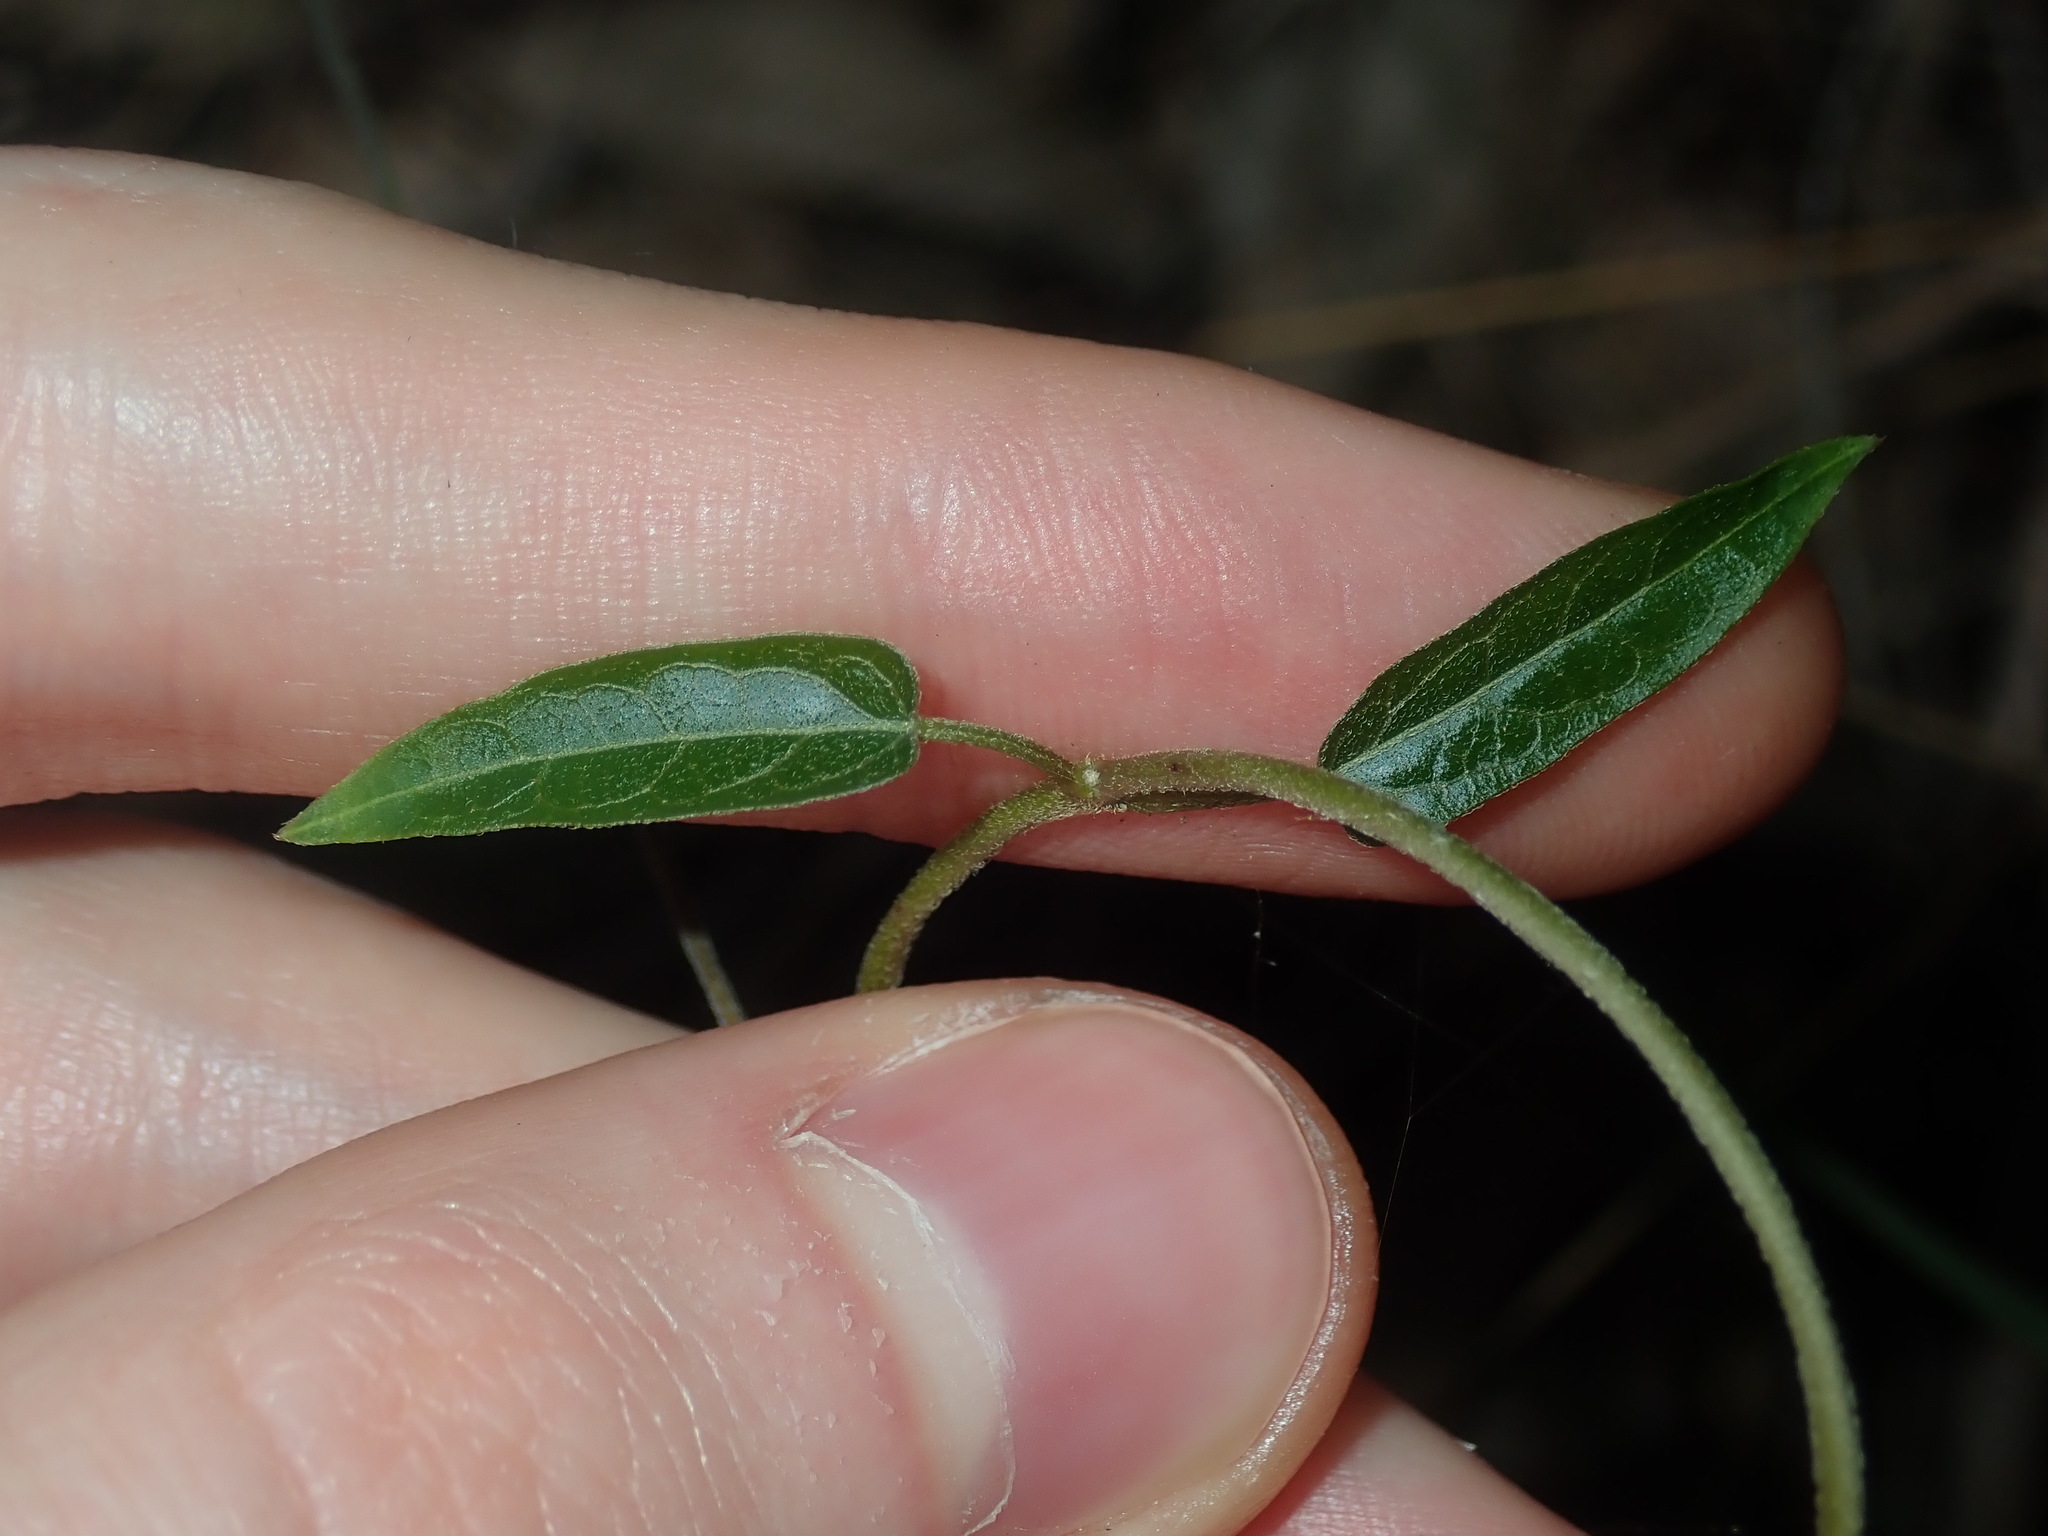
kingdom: Plantae
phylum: Tracheophyta
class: Magnoliopsida
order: Gentianales
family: Apocynaceae
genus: Vincetoxicum
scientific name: Vincetoxicum woollsii
